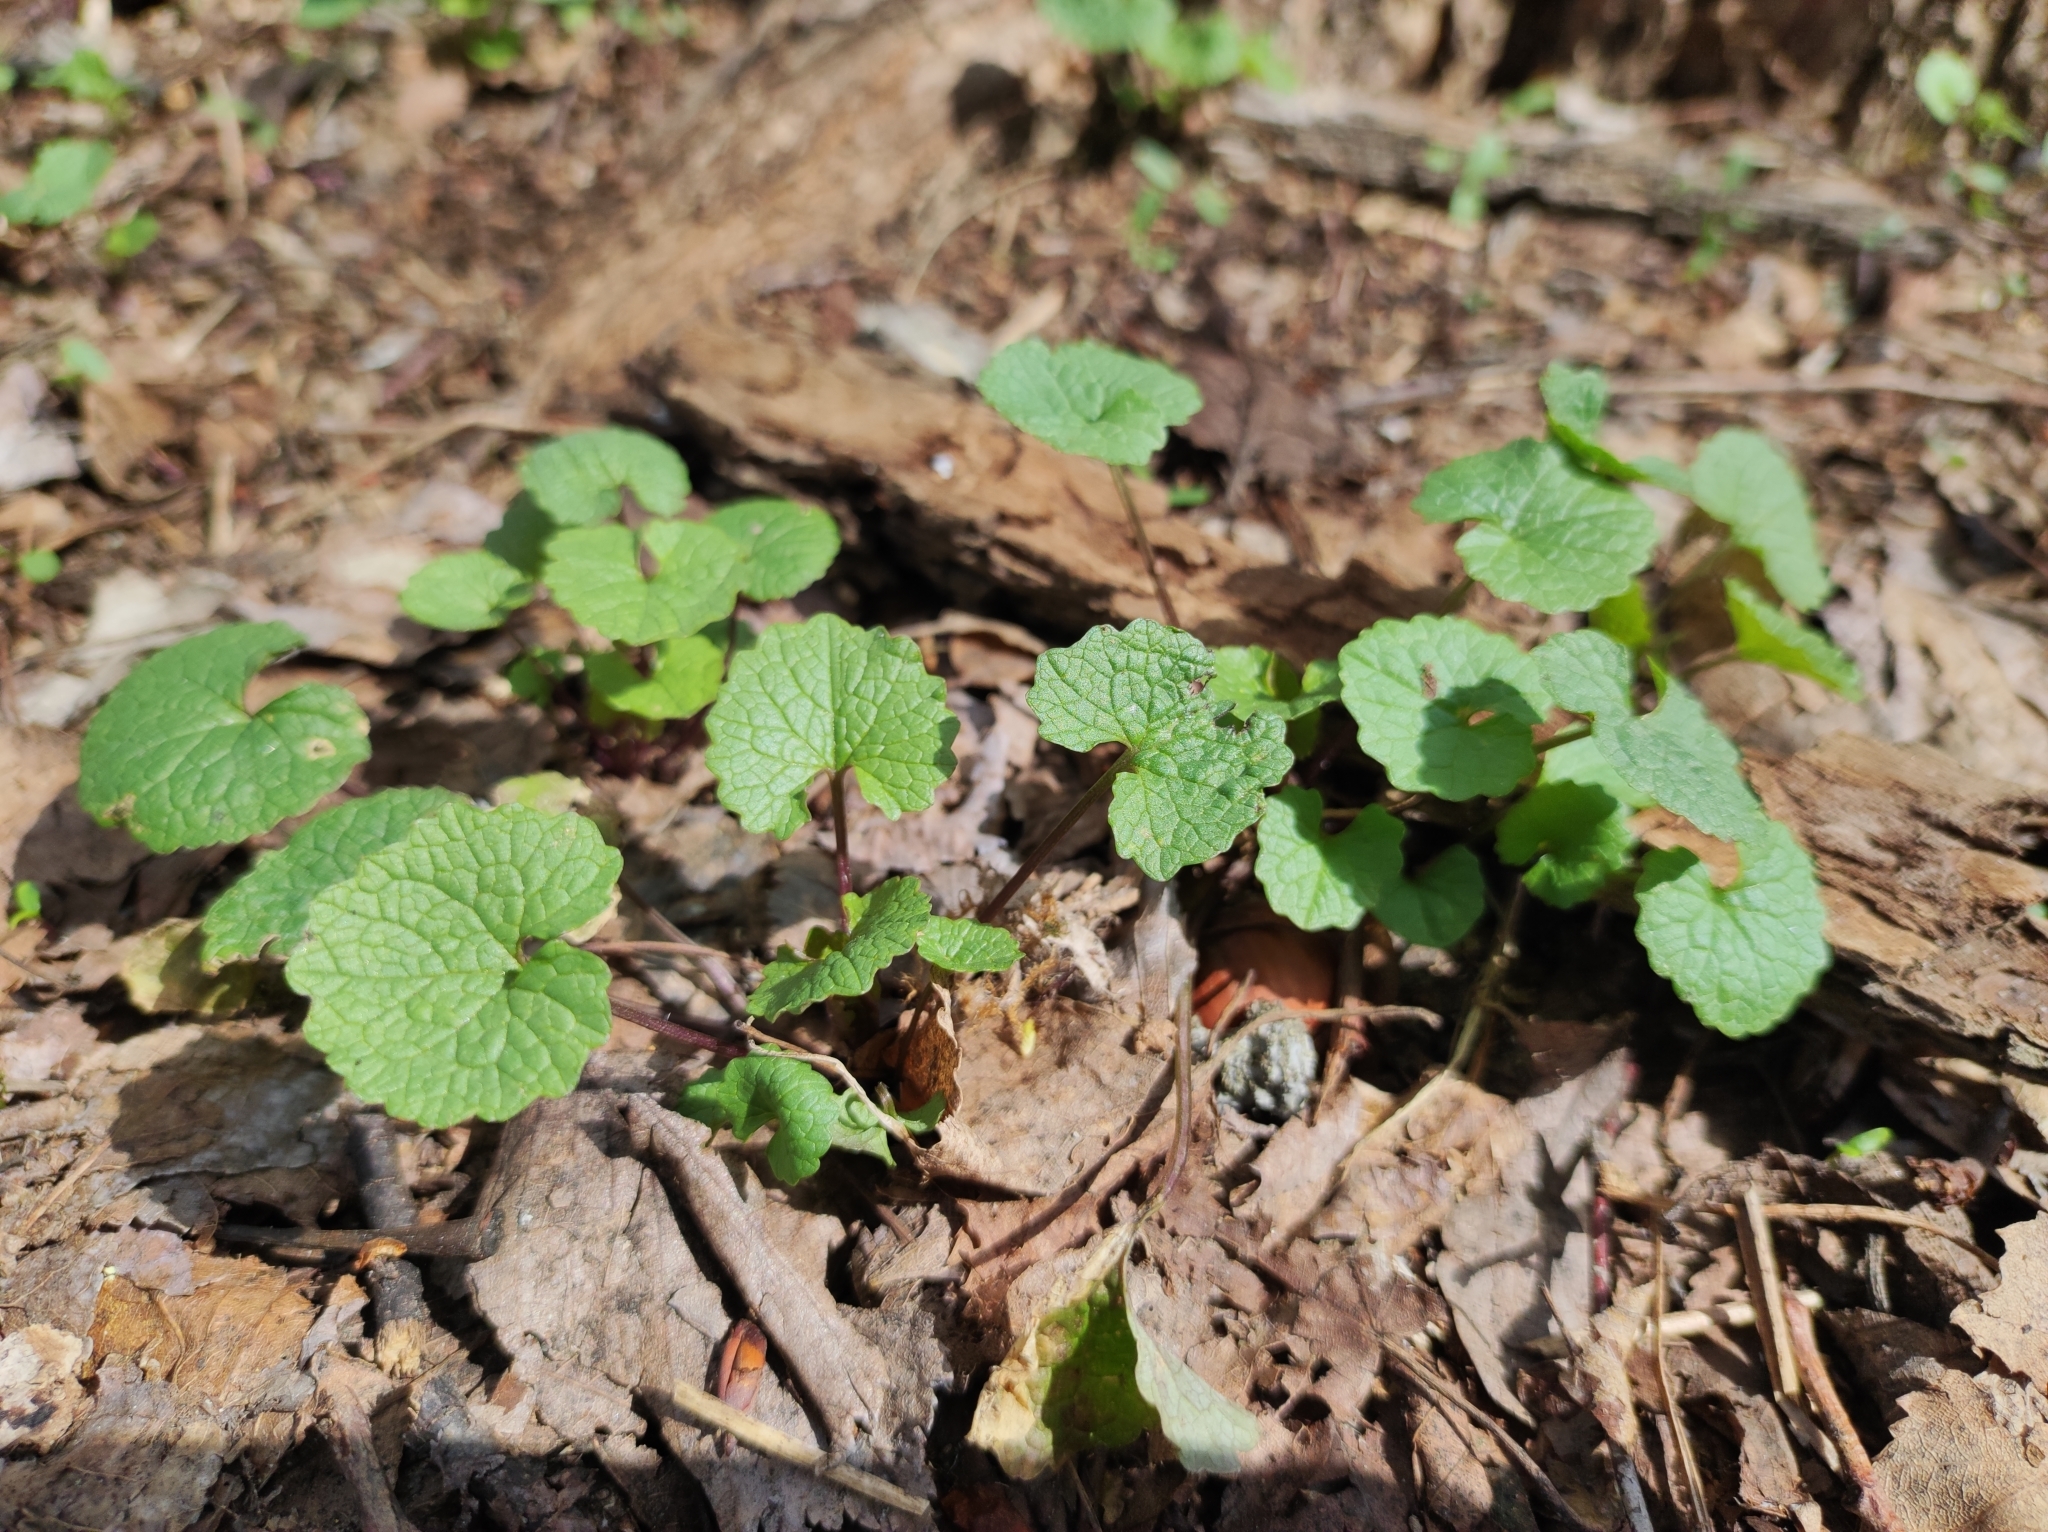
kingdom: Plantae
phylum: Tracheophyta
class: Magnoliopsida
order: Brassicales
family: Brassicaceae
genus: Alliaria
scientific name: Alliaria petiolata
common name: Garlic mustard
